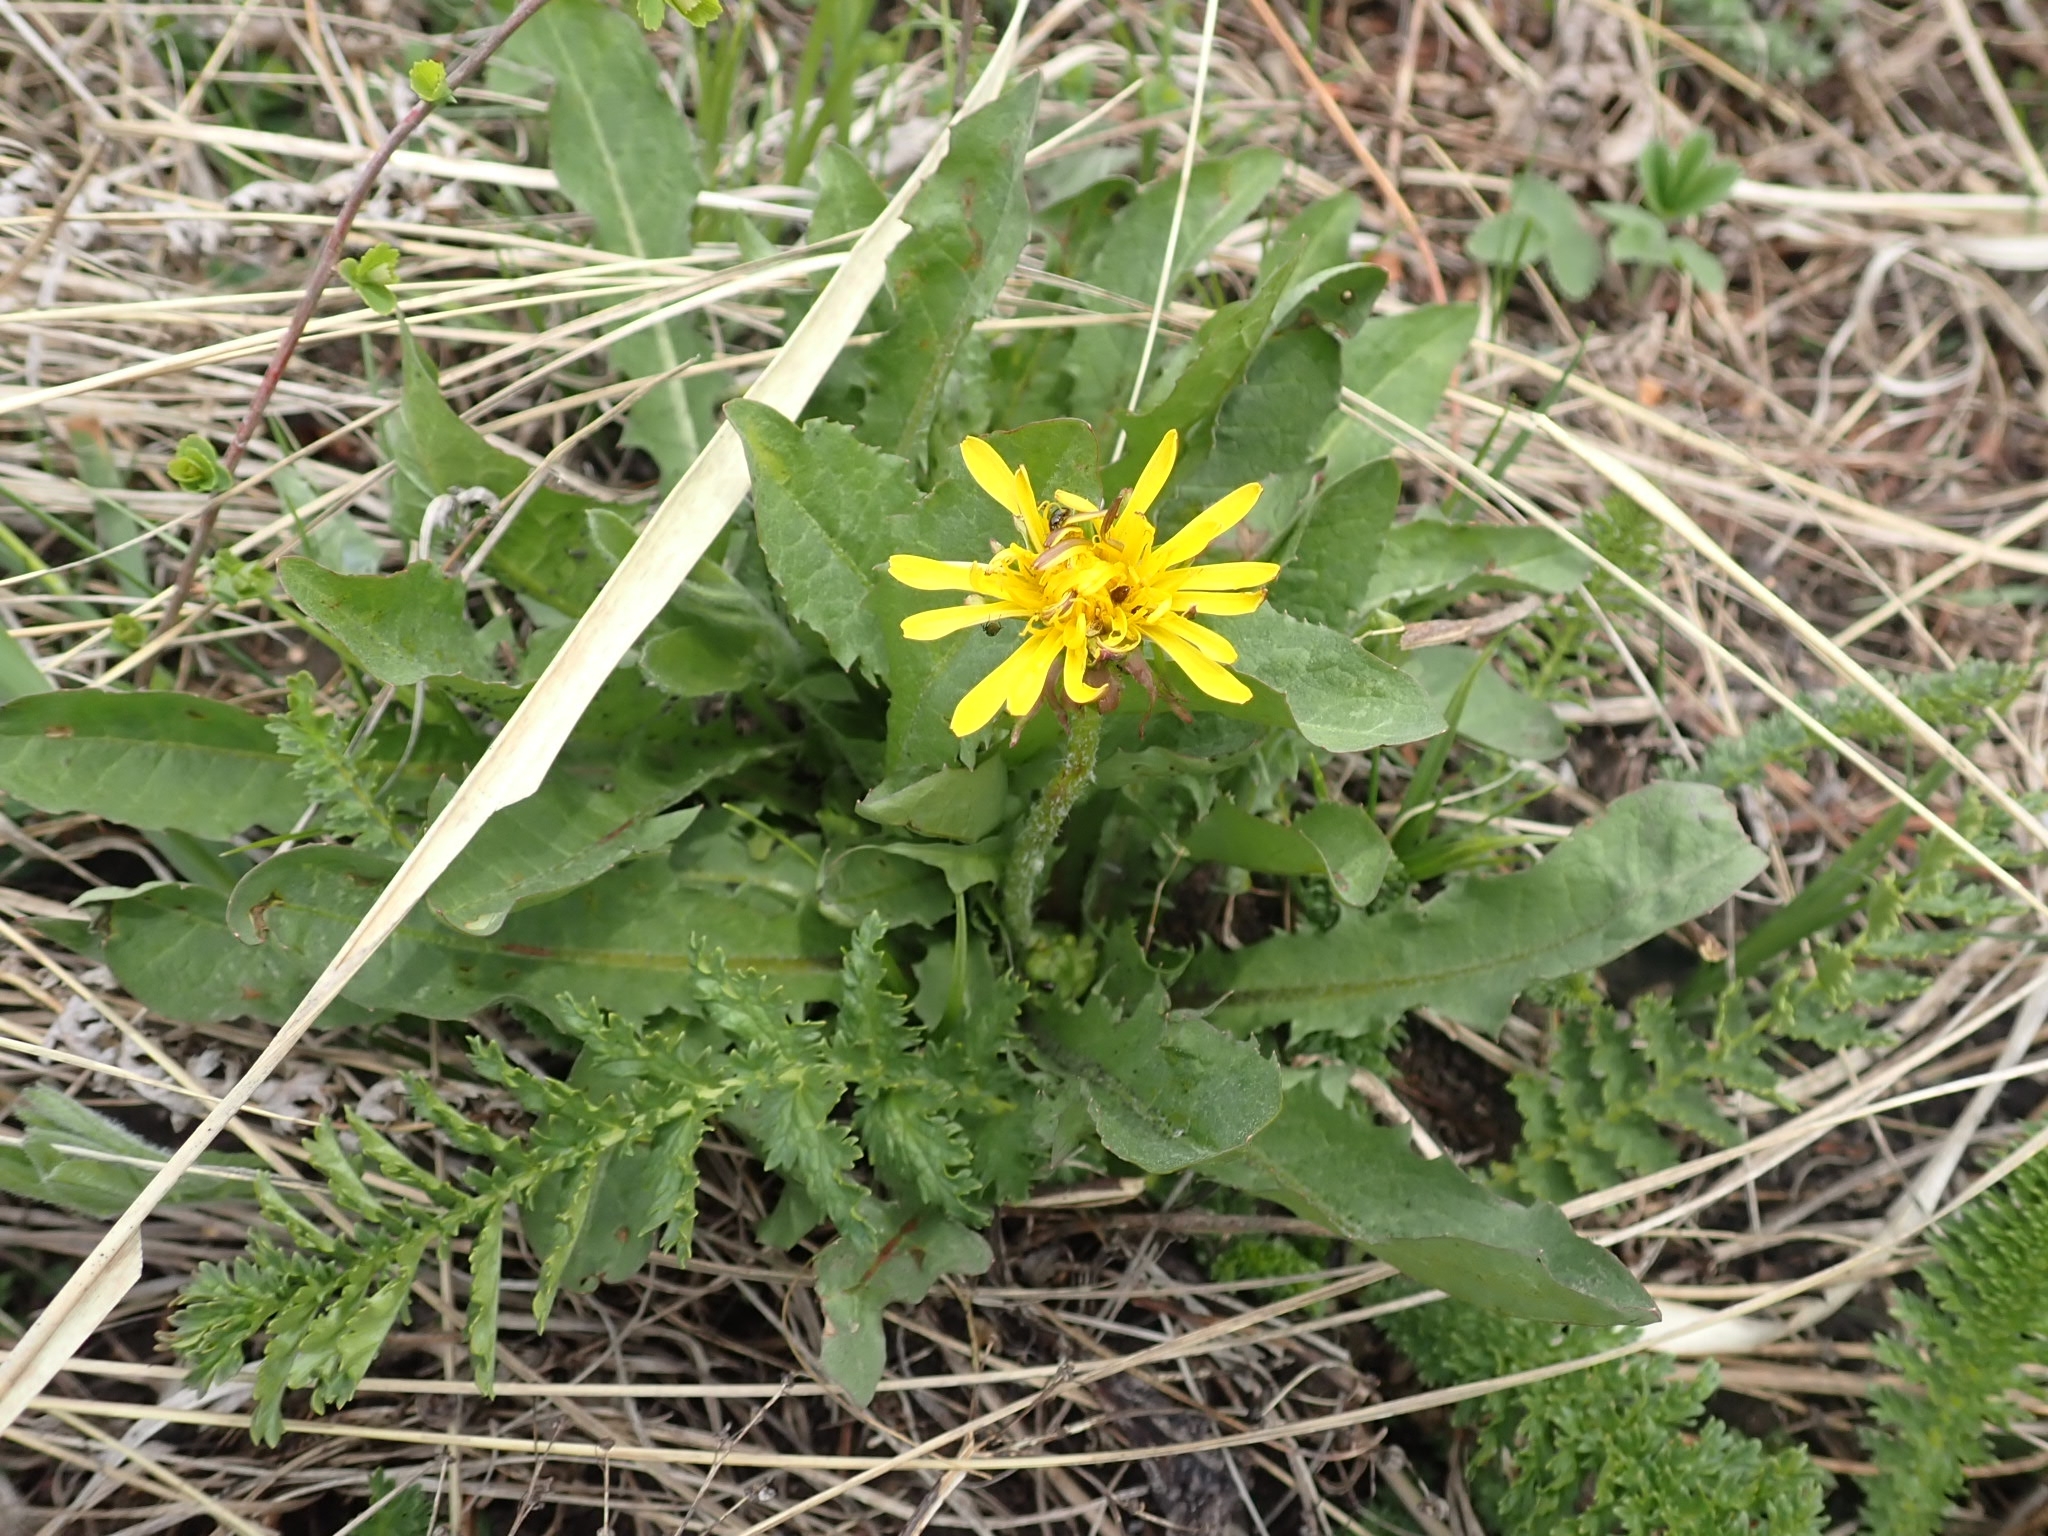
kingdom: Plantae
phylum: Tracheophyta
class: Magnoliopsida
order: Asterales
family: Asteraceae
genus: Taraxacum
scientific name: Taraxacum officinale
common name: Common dandelion
